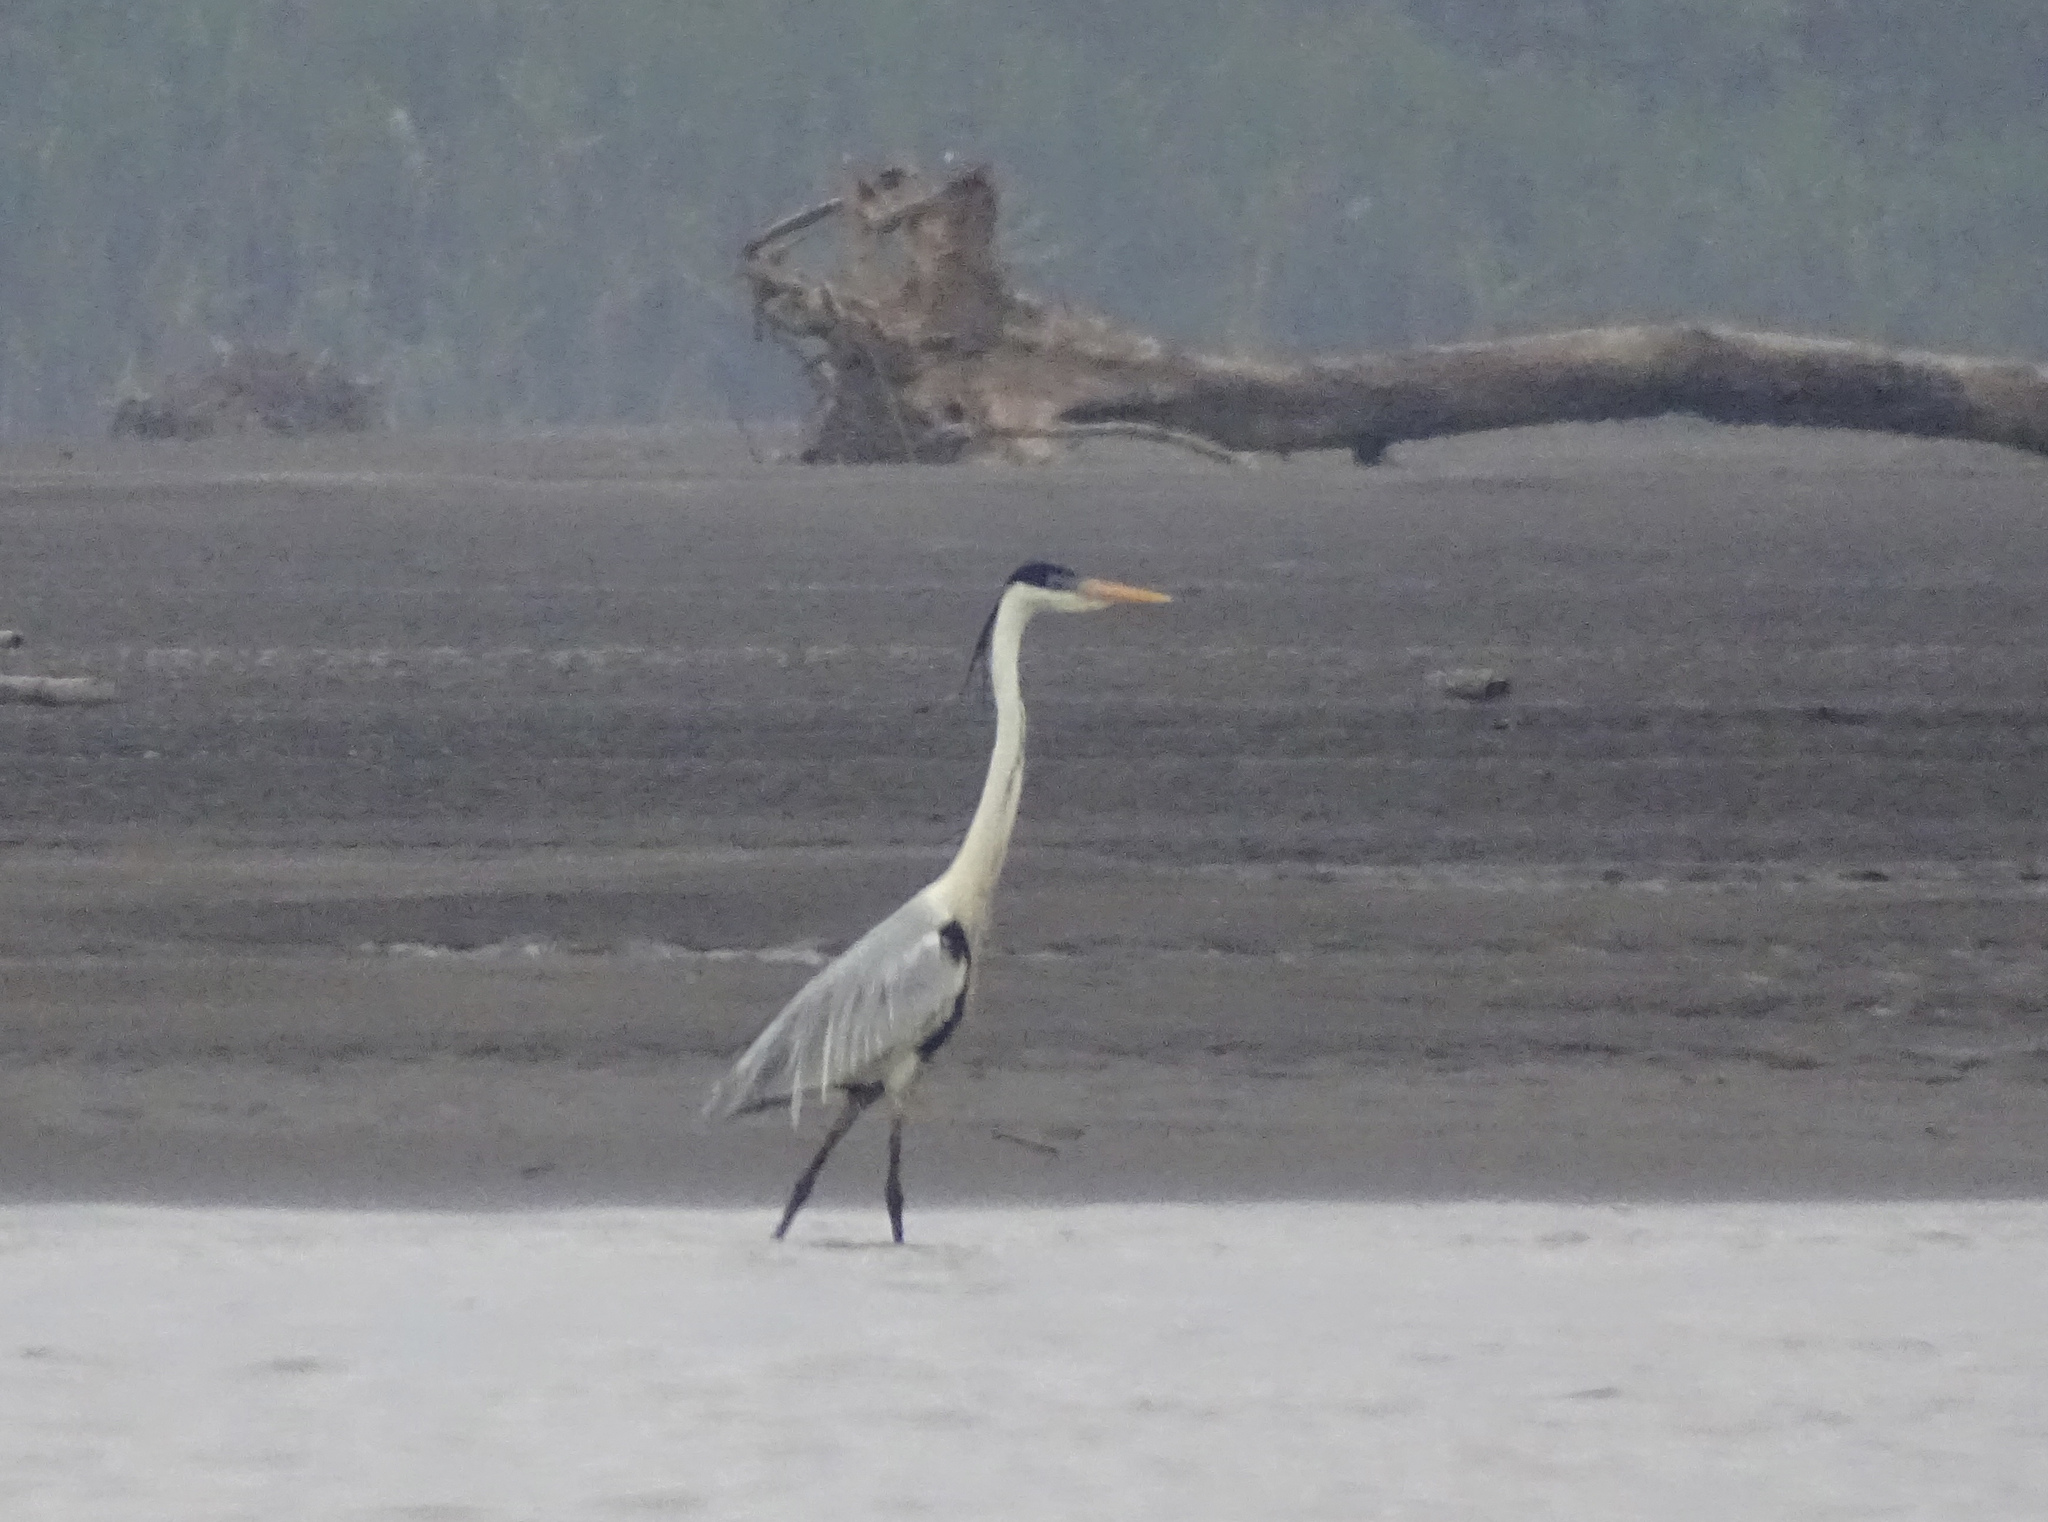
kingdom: Animalia
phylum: Chordata
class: Aves
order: Pelecaniformes
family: Ardeidae
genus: Ardea
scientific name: Ardea cocoi
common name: Cocoi heron
